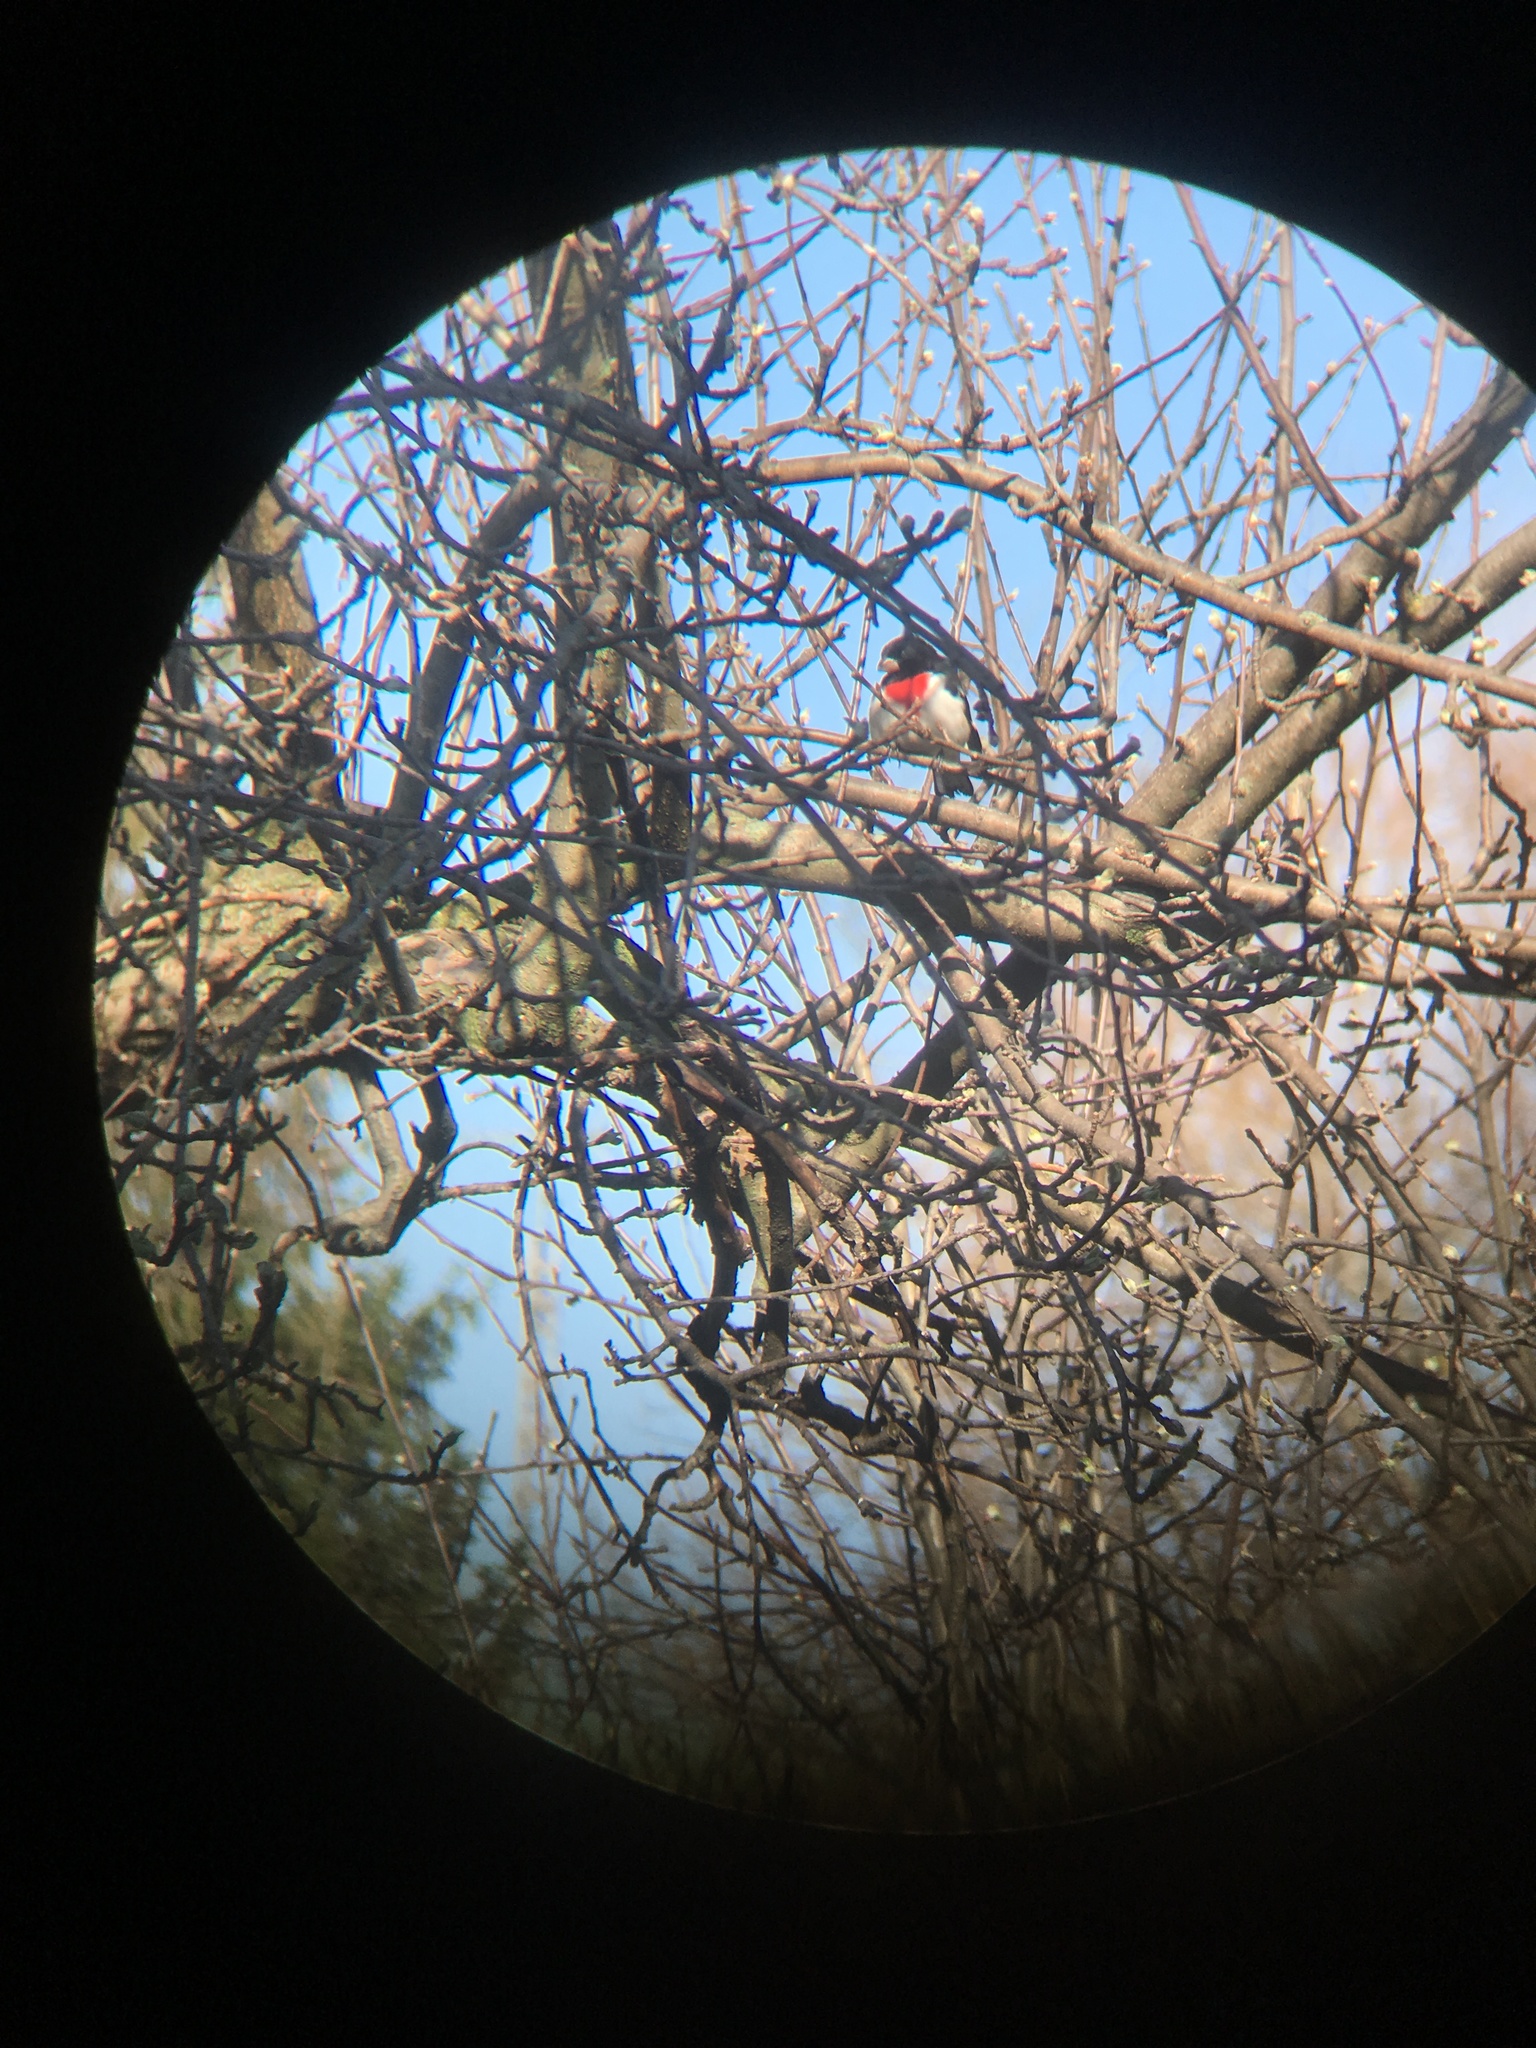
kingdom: Animalia
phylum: Chordata
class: Aves
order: Passeriformes
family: Cardinalidae
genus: Pheucticus
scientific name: Pheucticus ludovicianus
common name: Rose-breasted grosbeak
